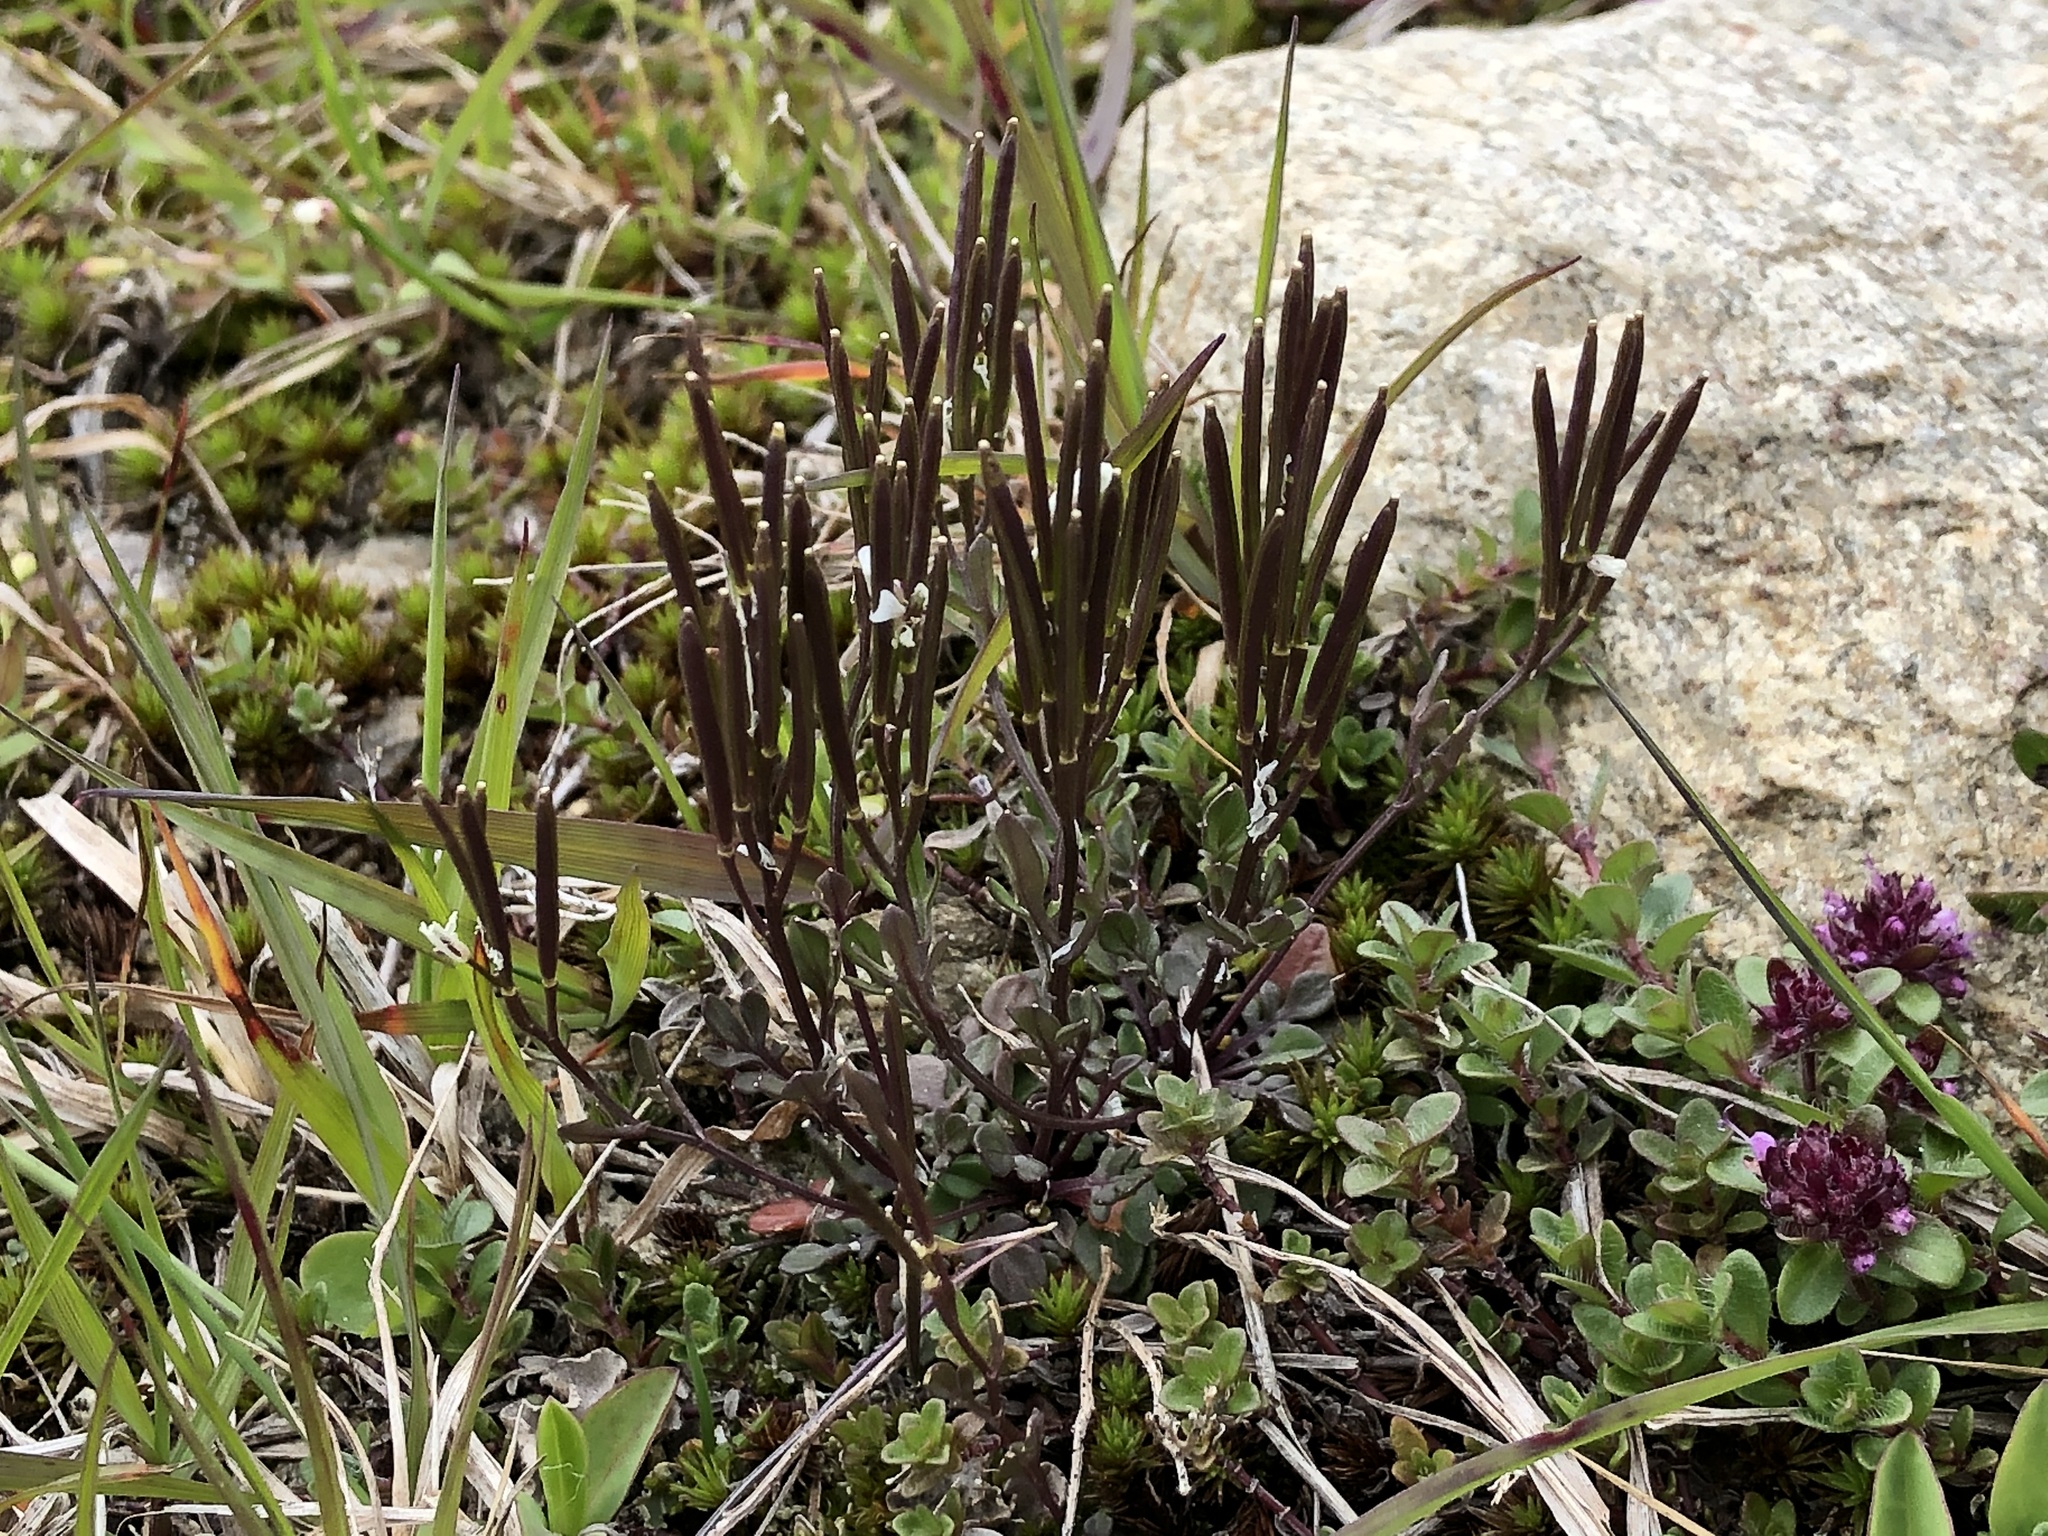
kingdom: Plantae
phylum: Tracheophyta
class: Magnoliopsida
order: Brassicales
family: Brassicaceae
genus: Cardamine
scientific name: Cardamine resedifolia
